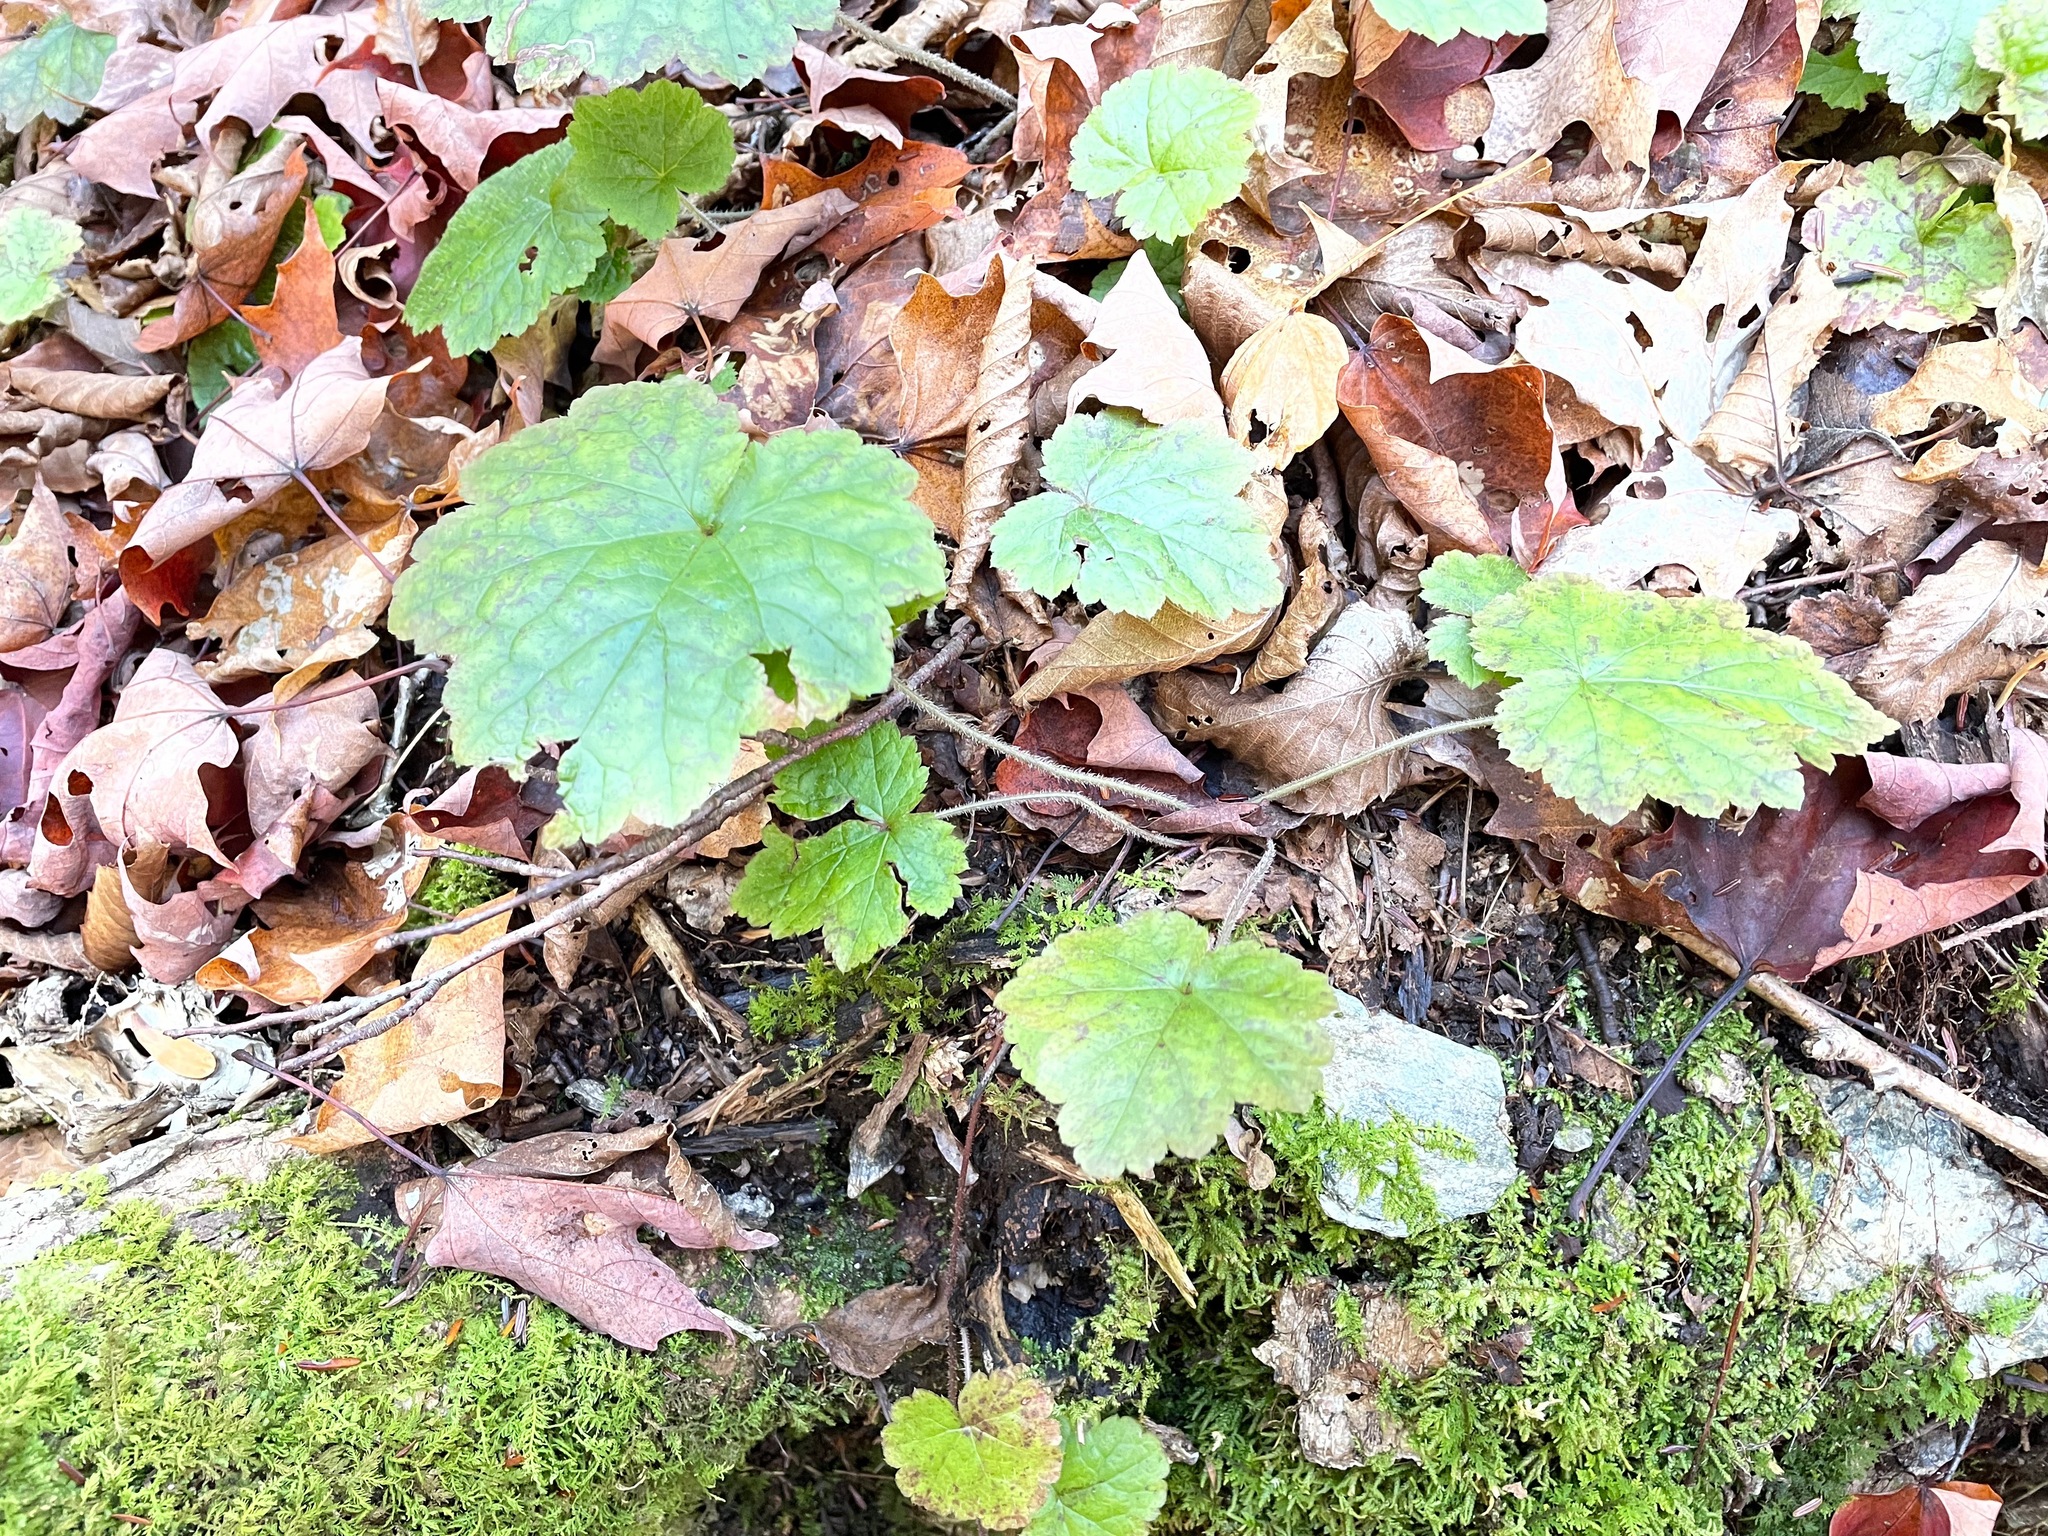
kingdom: Plantae
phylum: Tracheophyta
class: Magnoliopsida
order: Saxifragales
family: Saxifragaceae
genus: Tiarella
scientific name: Tiarella stolonifera
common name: Stoloniferous foamflower
